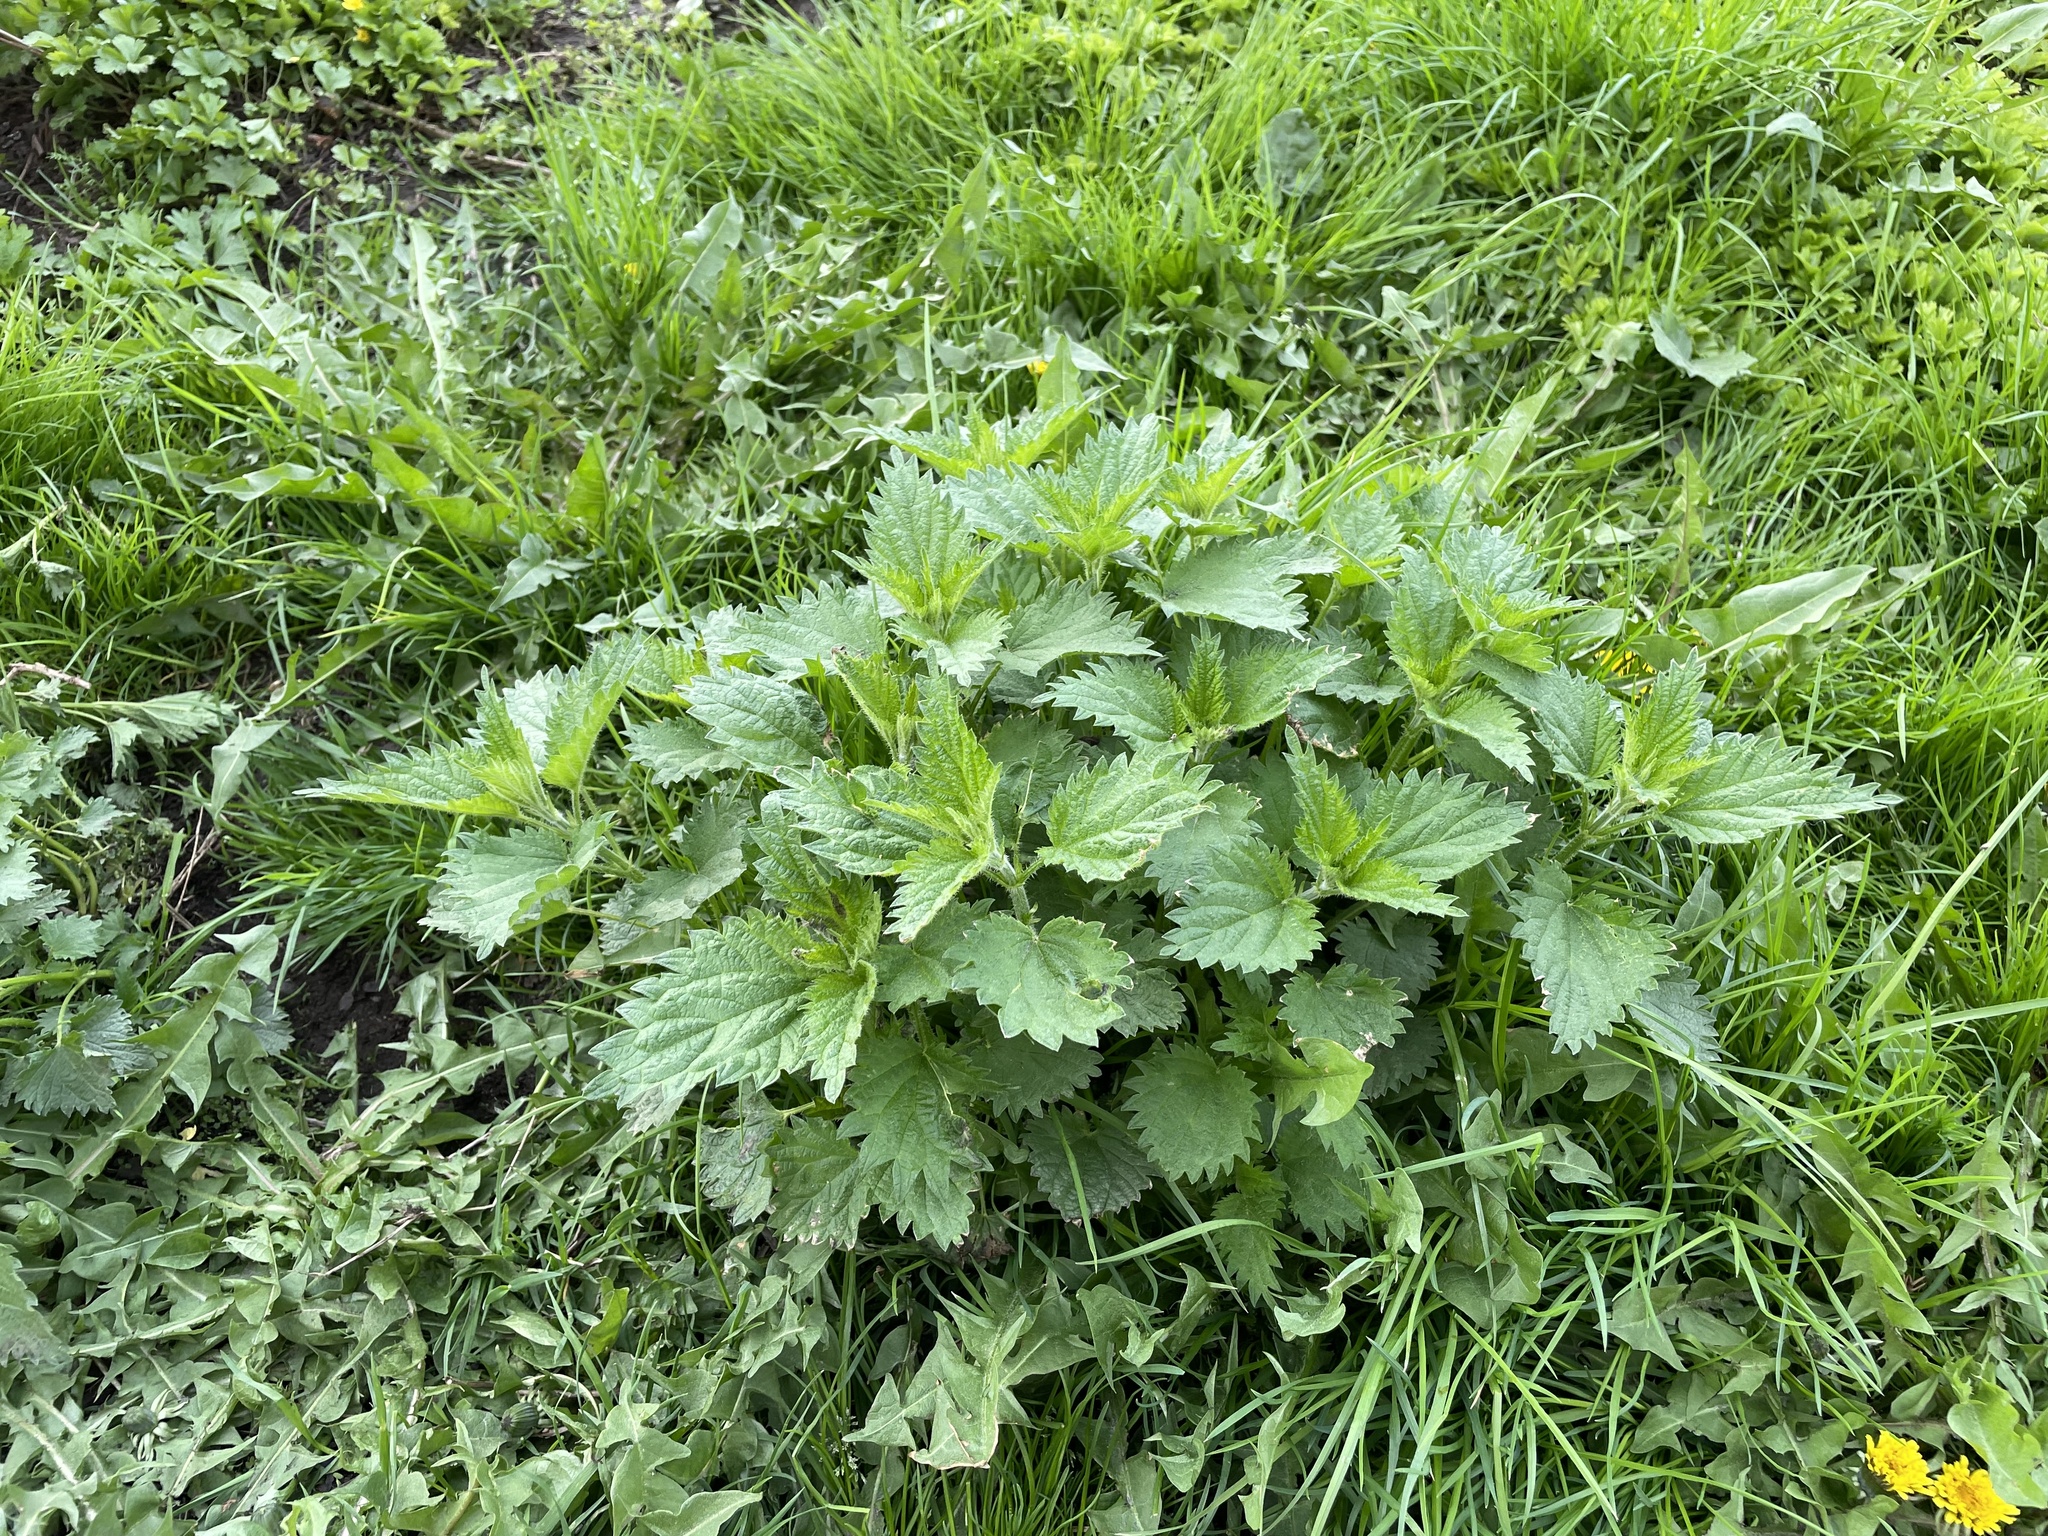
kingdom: Plantae
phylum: Tracheophyta
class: Magnoliopsida
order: Rosales
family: Urticaceae
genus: Urtica
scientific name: Urtica dioica
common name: Common nettle
